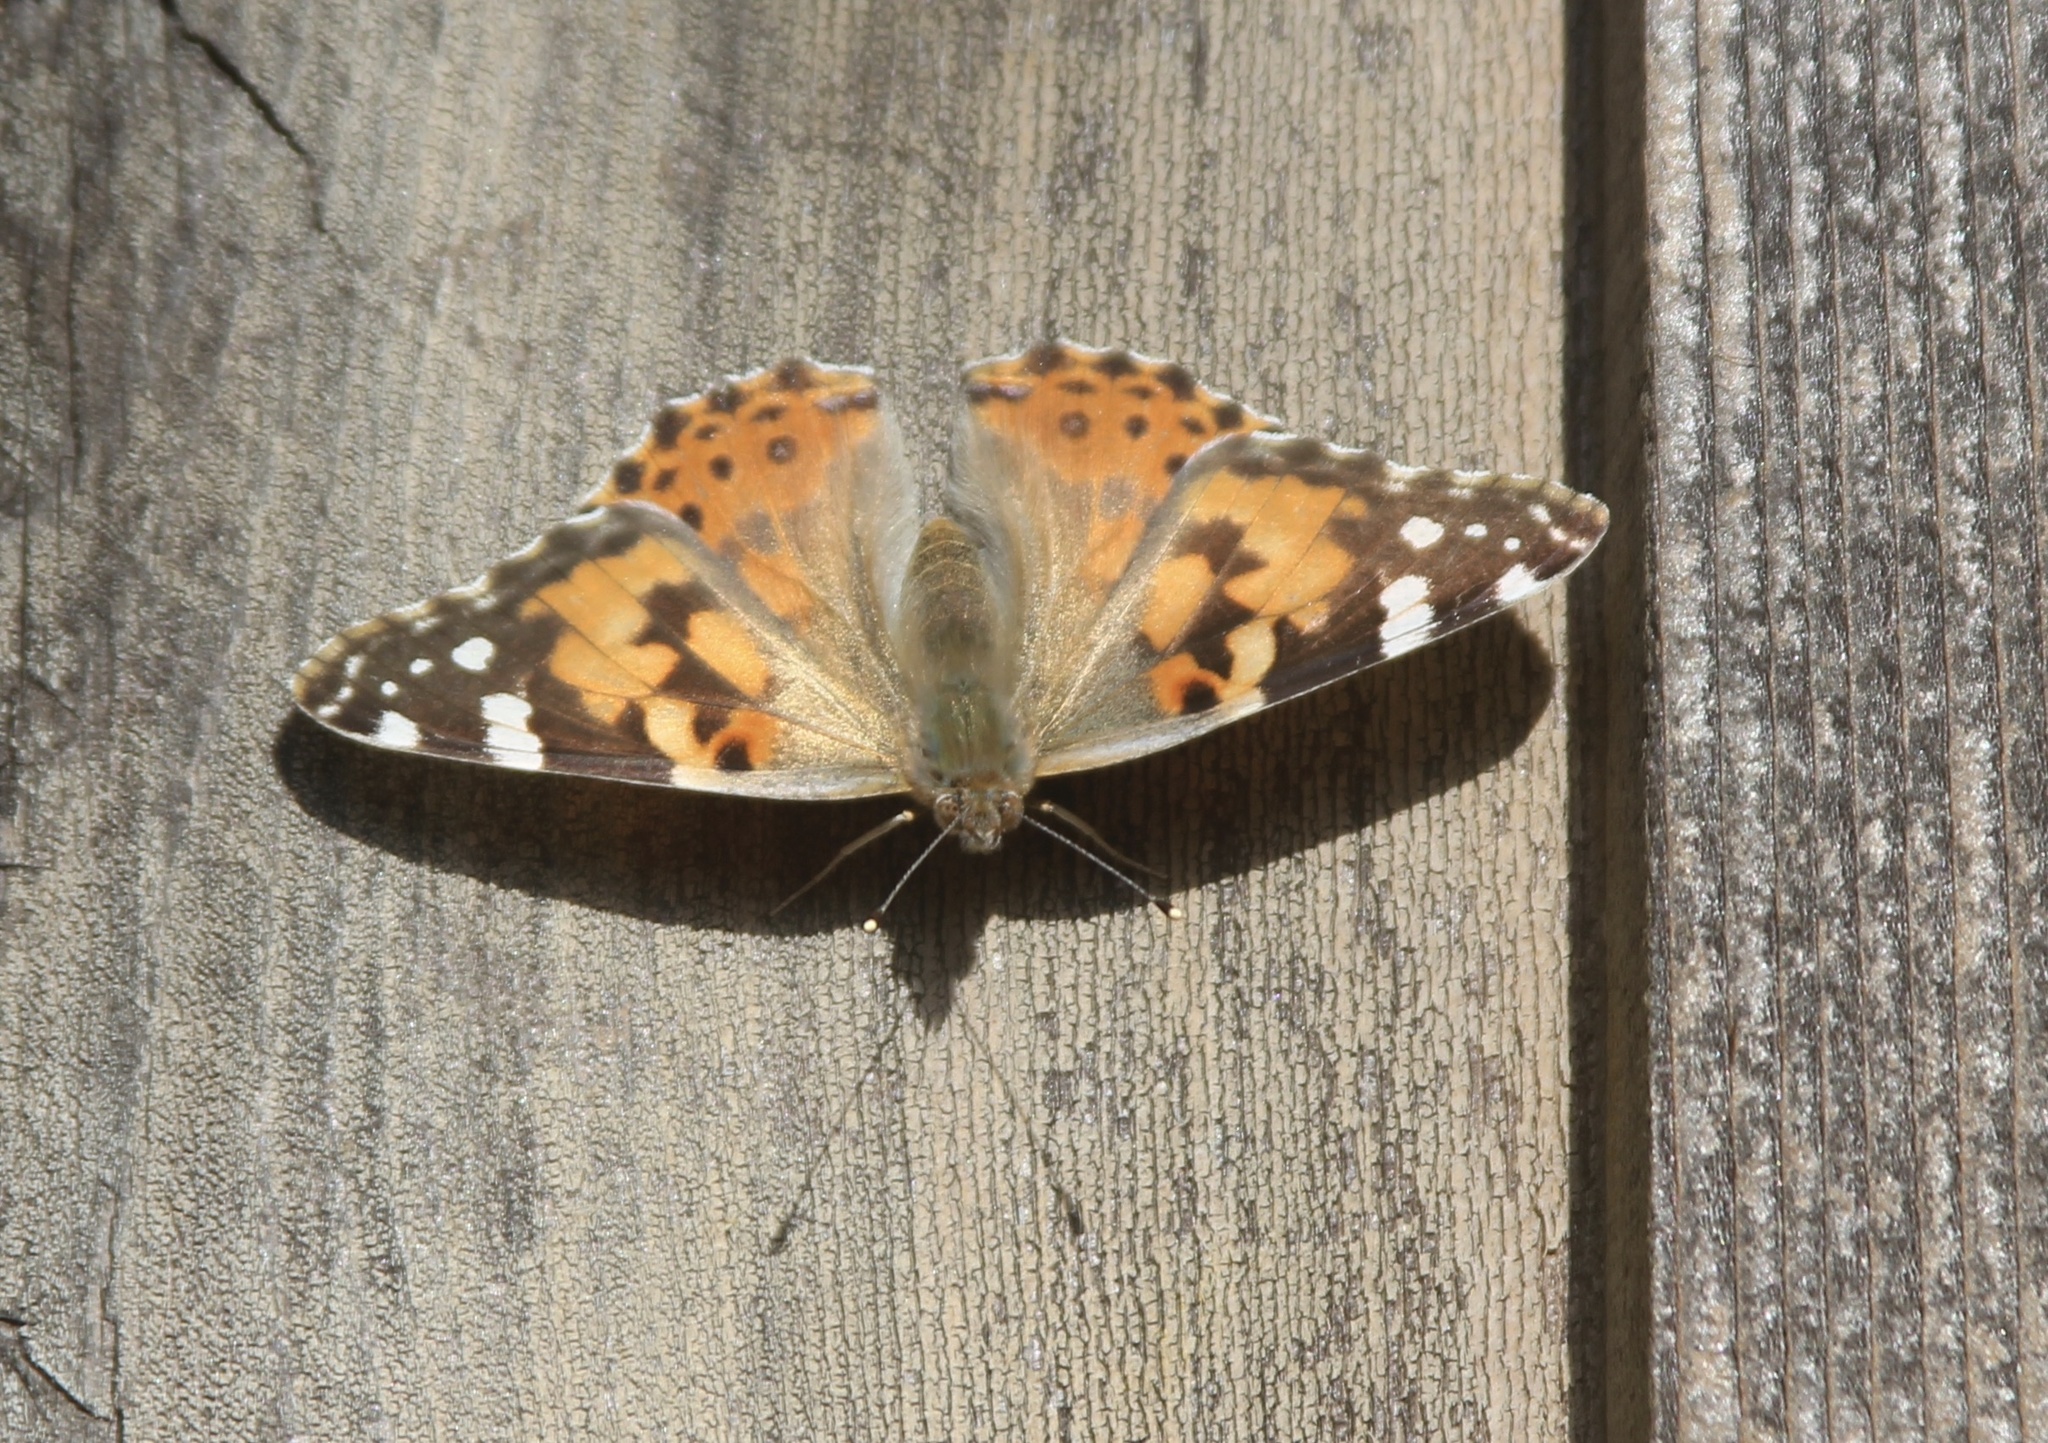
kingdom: Animalia
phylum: Arthropoda
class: Insecta
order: Lepidoptera
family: Nymphalidae
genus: Vanessa
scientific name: Vanessa cardui
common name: Painted lady
